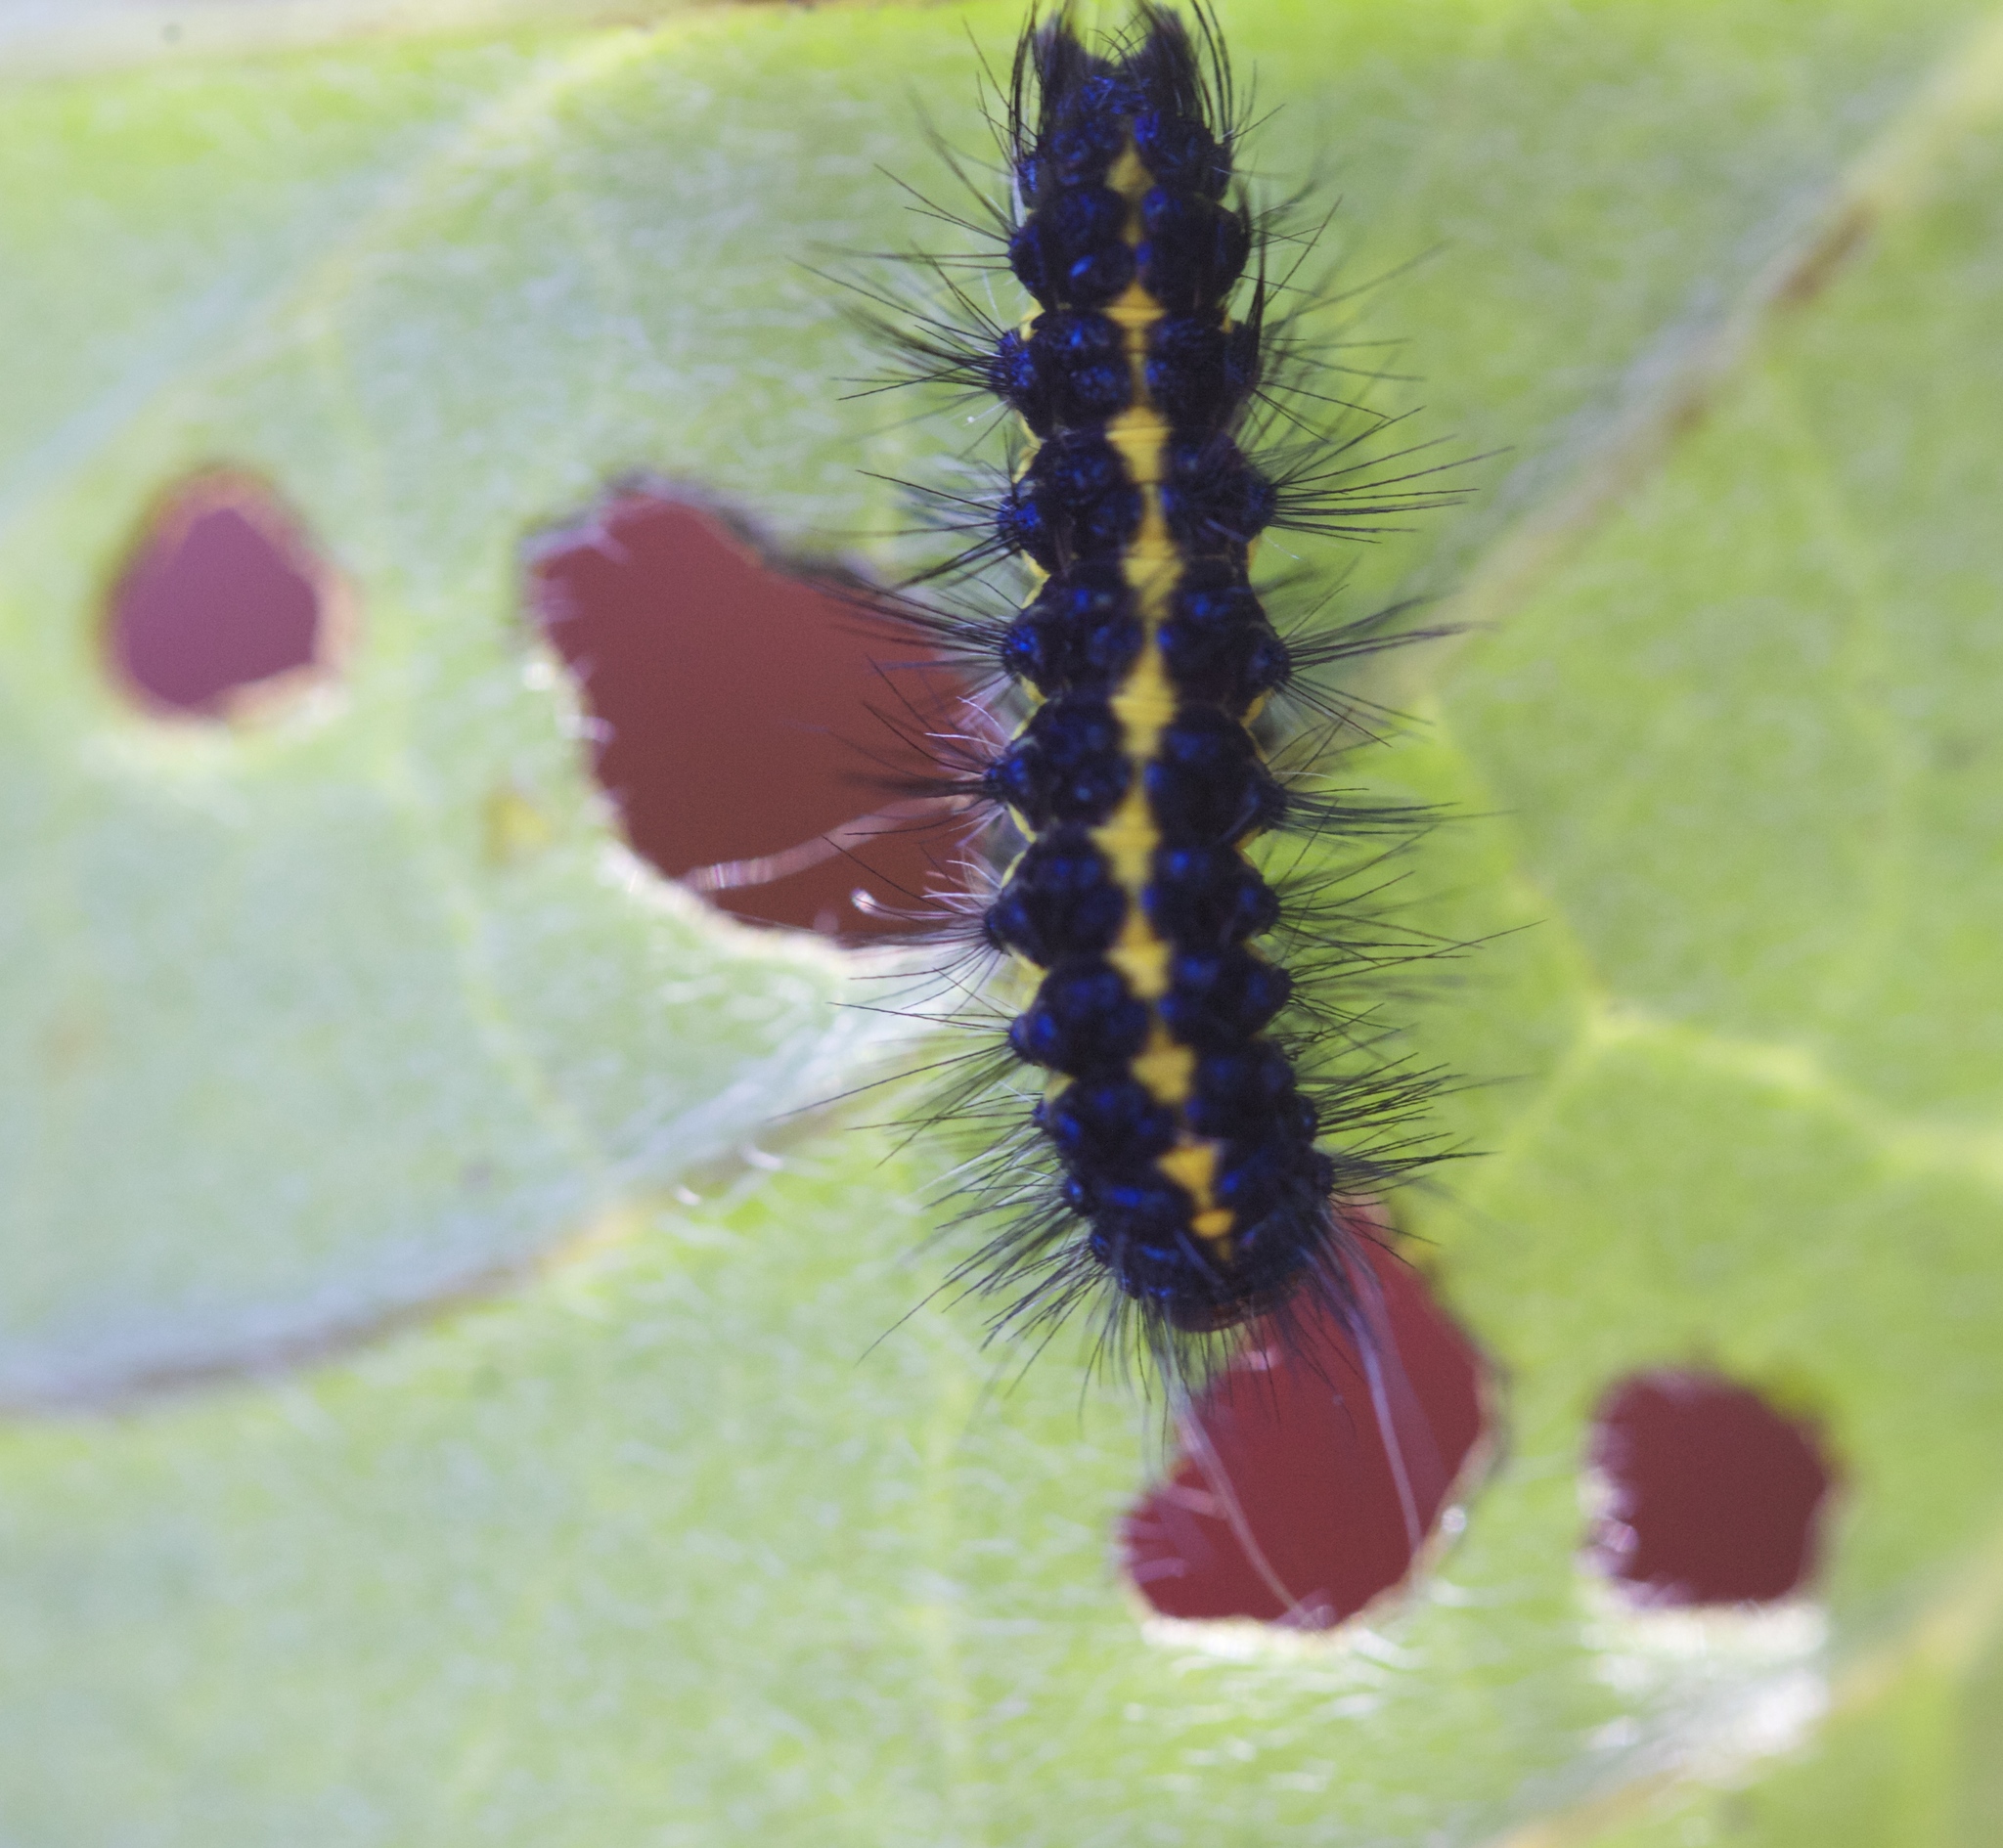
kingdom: Animalia
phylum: Arthropoda
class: Insecta
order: Lepidoptera
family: Erebidae
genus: Gnophaela
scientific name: Gnophaela latipennis
